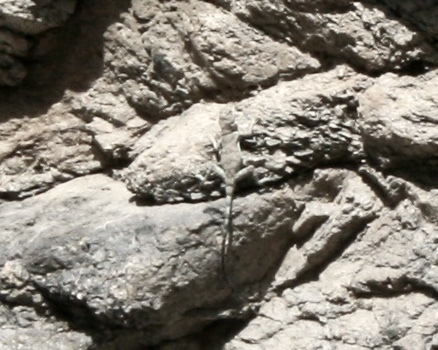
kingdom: Animalia
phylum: Chordata
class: Squamata
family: Phrynosomatidae
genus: Petrosaurus
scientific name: Petrosaurus mearnsi
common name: Banded rock lizard
